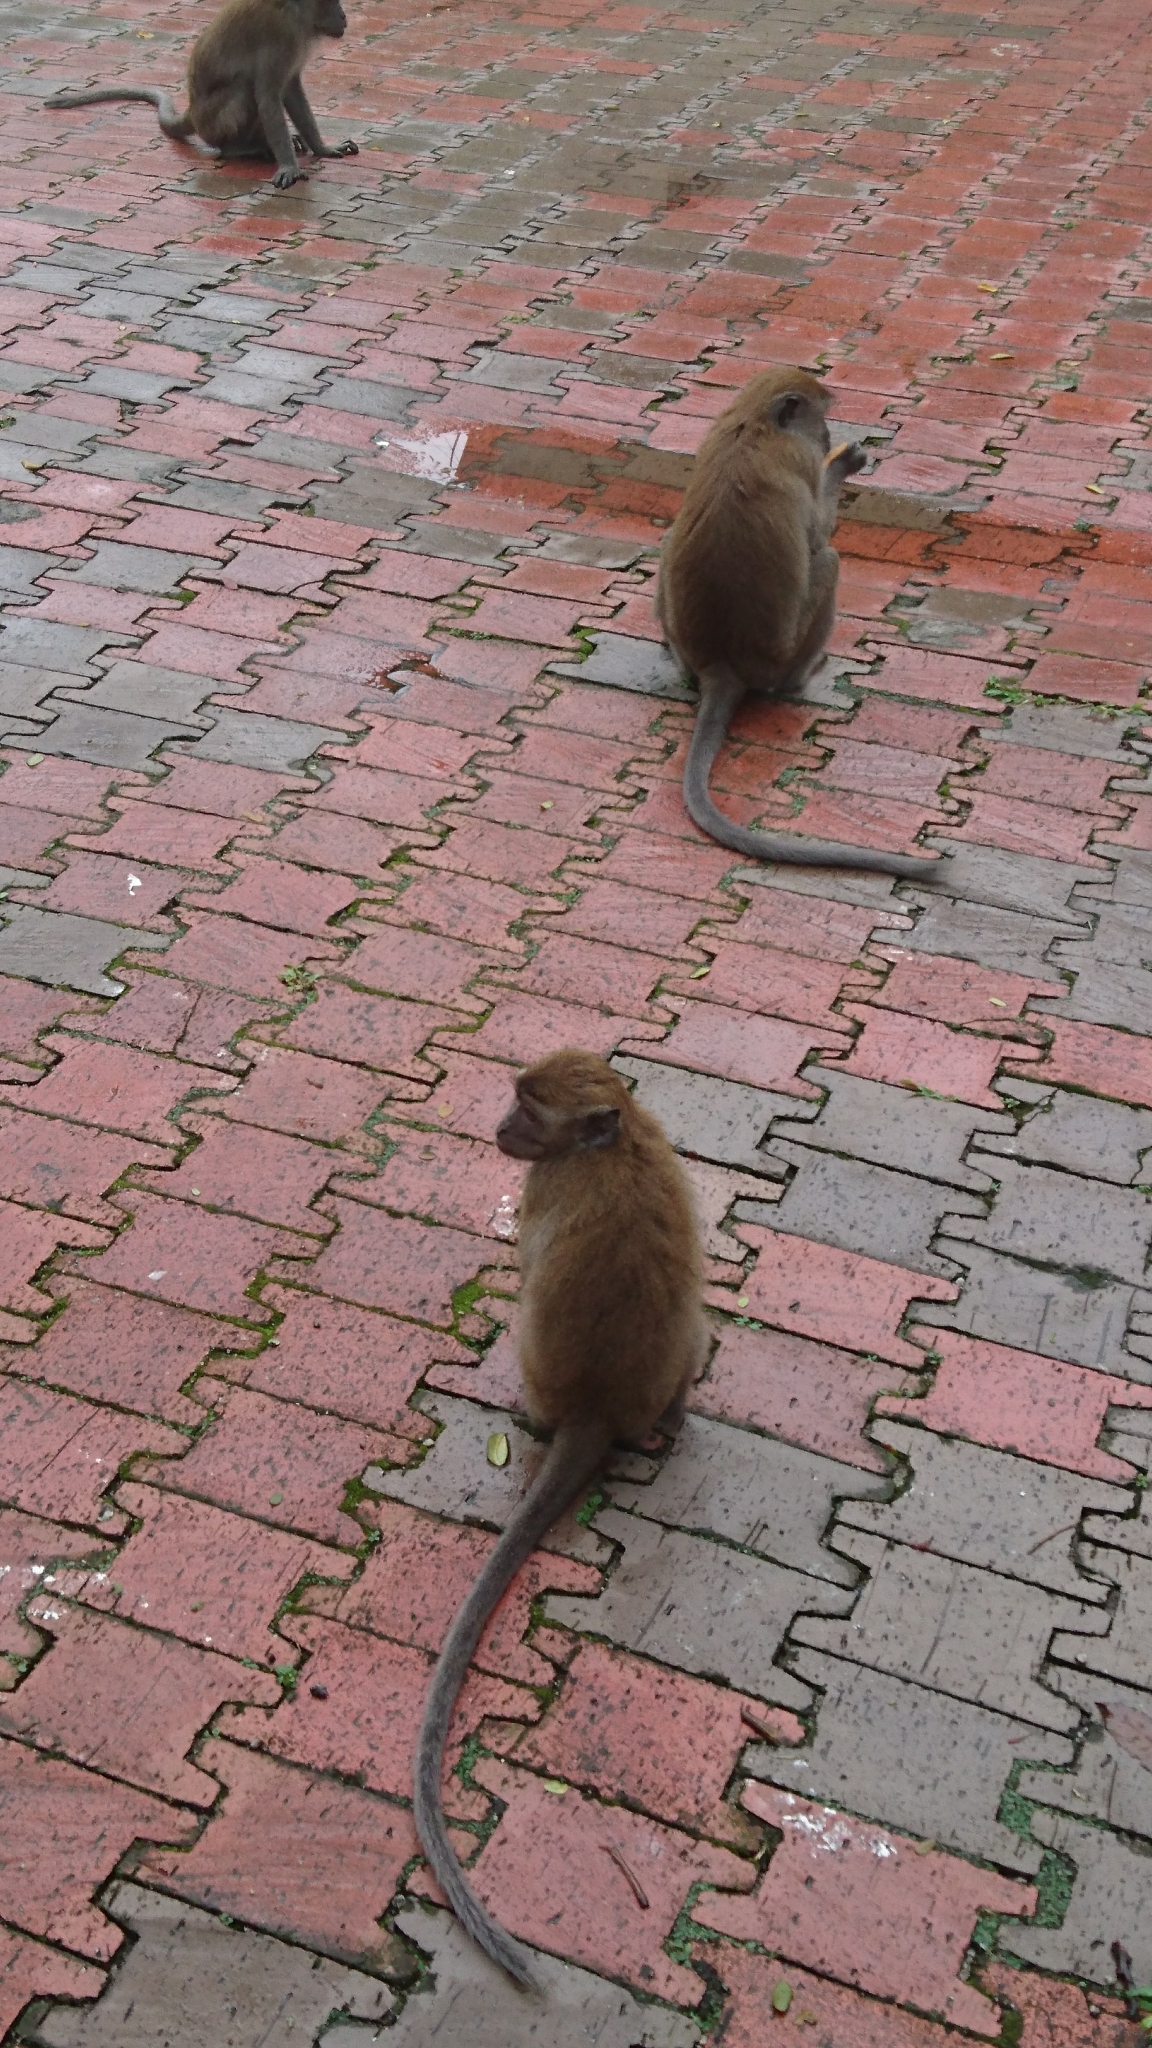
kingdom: Animalia
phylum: Chordata
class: Mammalia
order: Primates
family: Cercopithecidae
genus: Macaca
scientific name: Macaca fascicularis
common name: Crab-eating macaque
